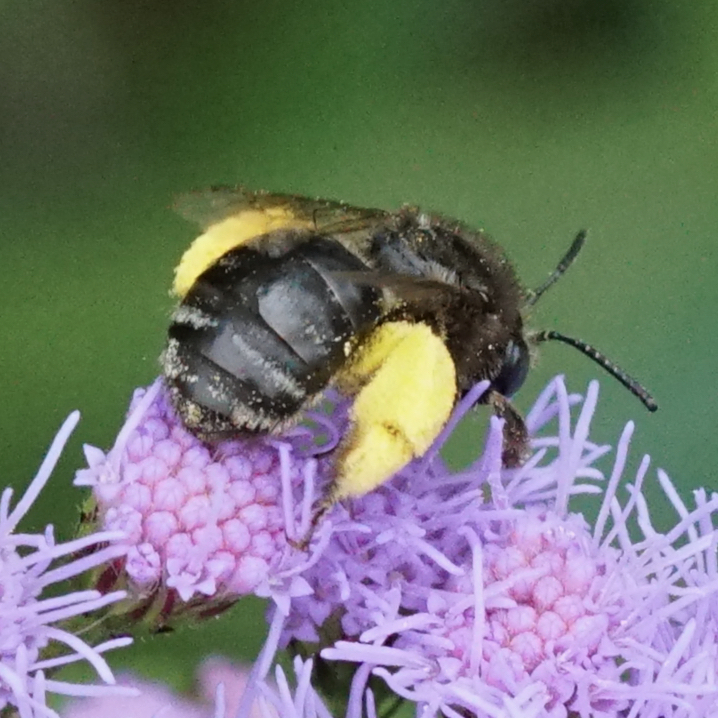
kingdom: Animalia
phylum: Arthropoda
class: Insecta
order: Hymenoptera
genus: Eumelissodes
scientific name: Eumelissodes
